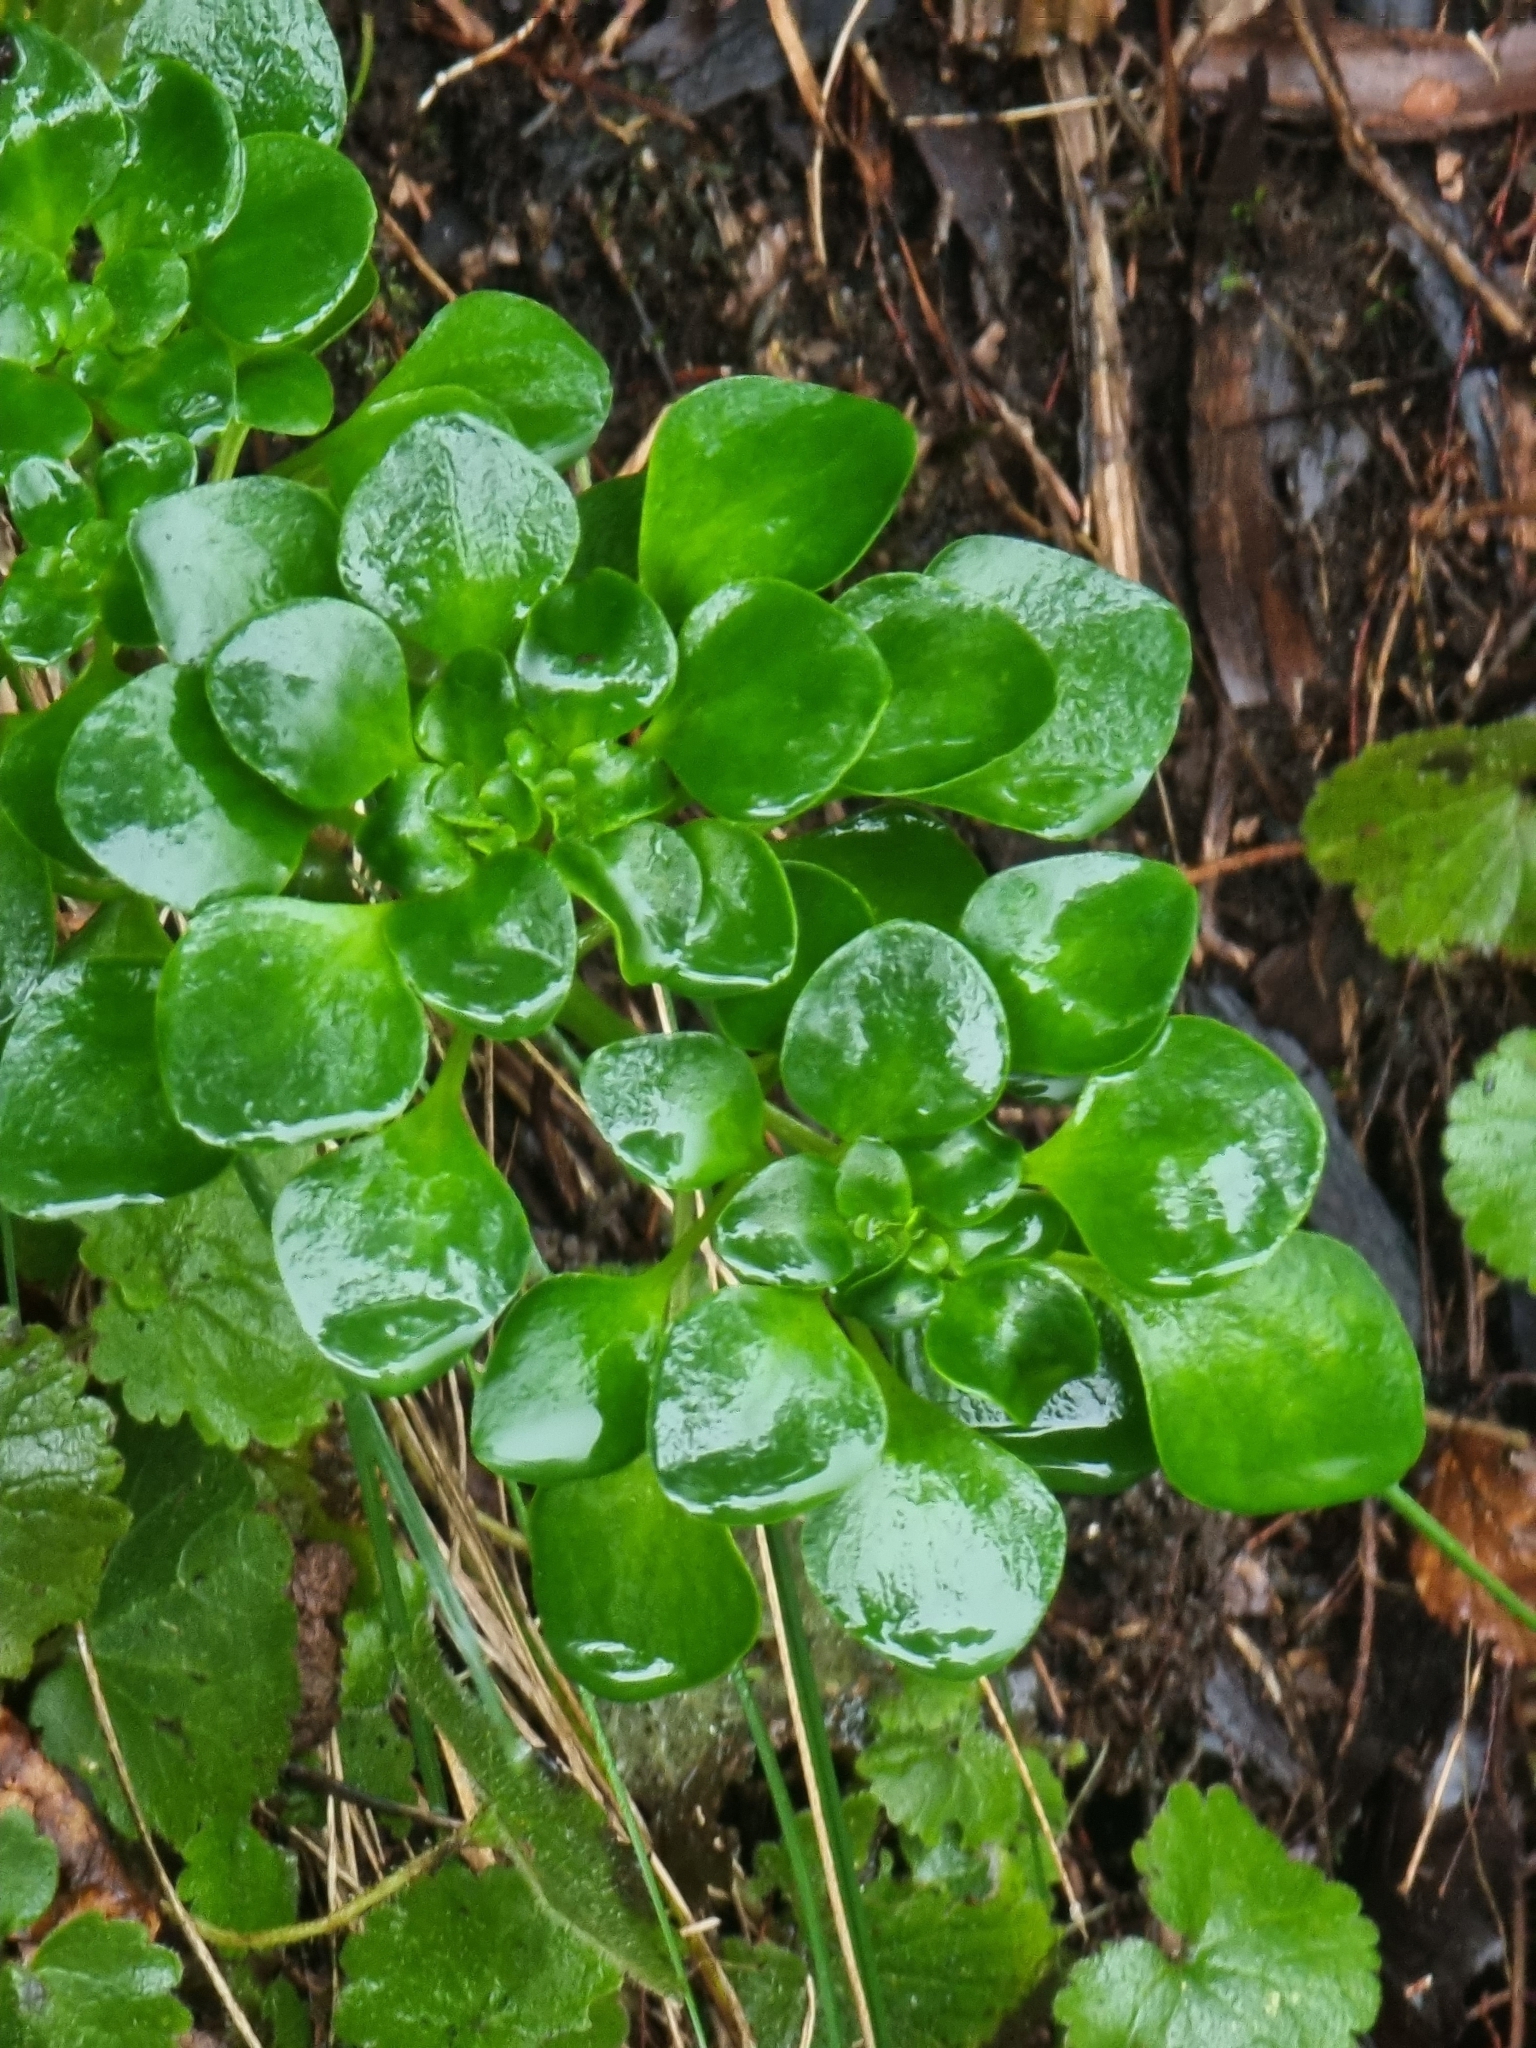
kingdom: Plantae
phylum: Tracheophyta
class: Magnoliopsida
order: Saxifragales
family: Crassulaceae
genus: Aichryson
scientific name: Aichryson divaricatum
